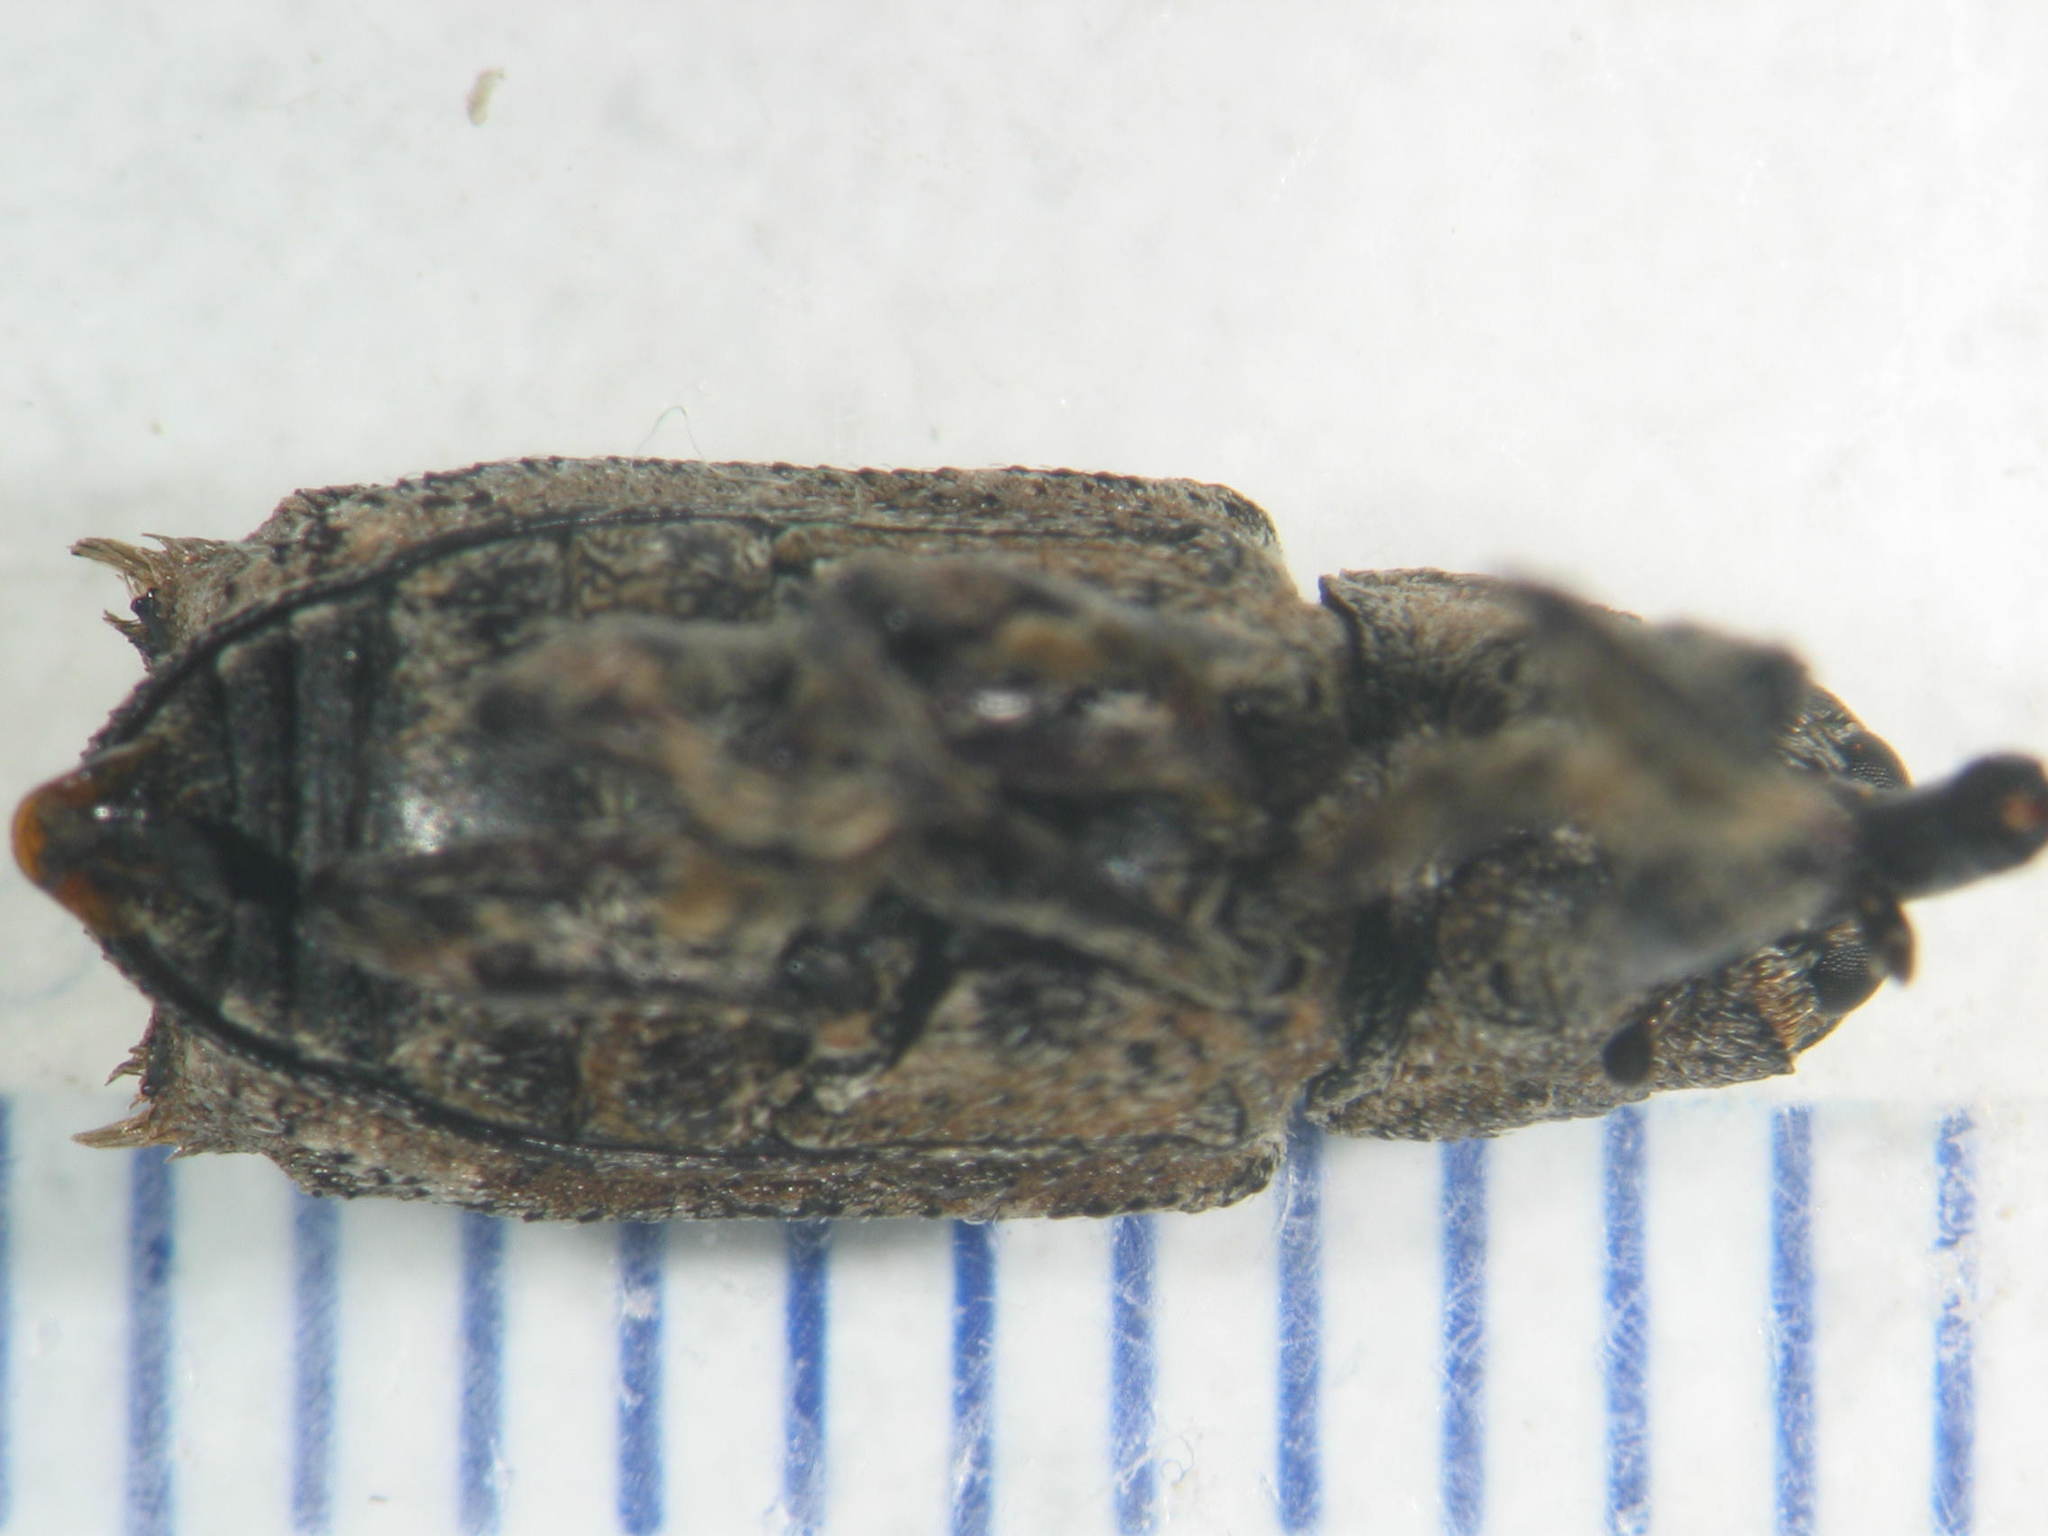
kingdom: Animalia
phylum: Arthropoda
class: Insecta
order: Coleoptera
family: Curculionidae
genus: Orthorhinus
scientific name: Orthorhinus cylindrirostris
